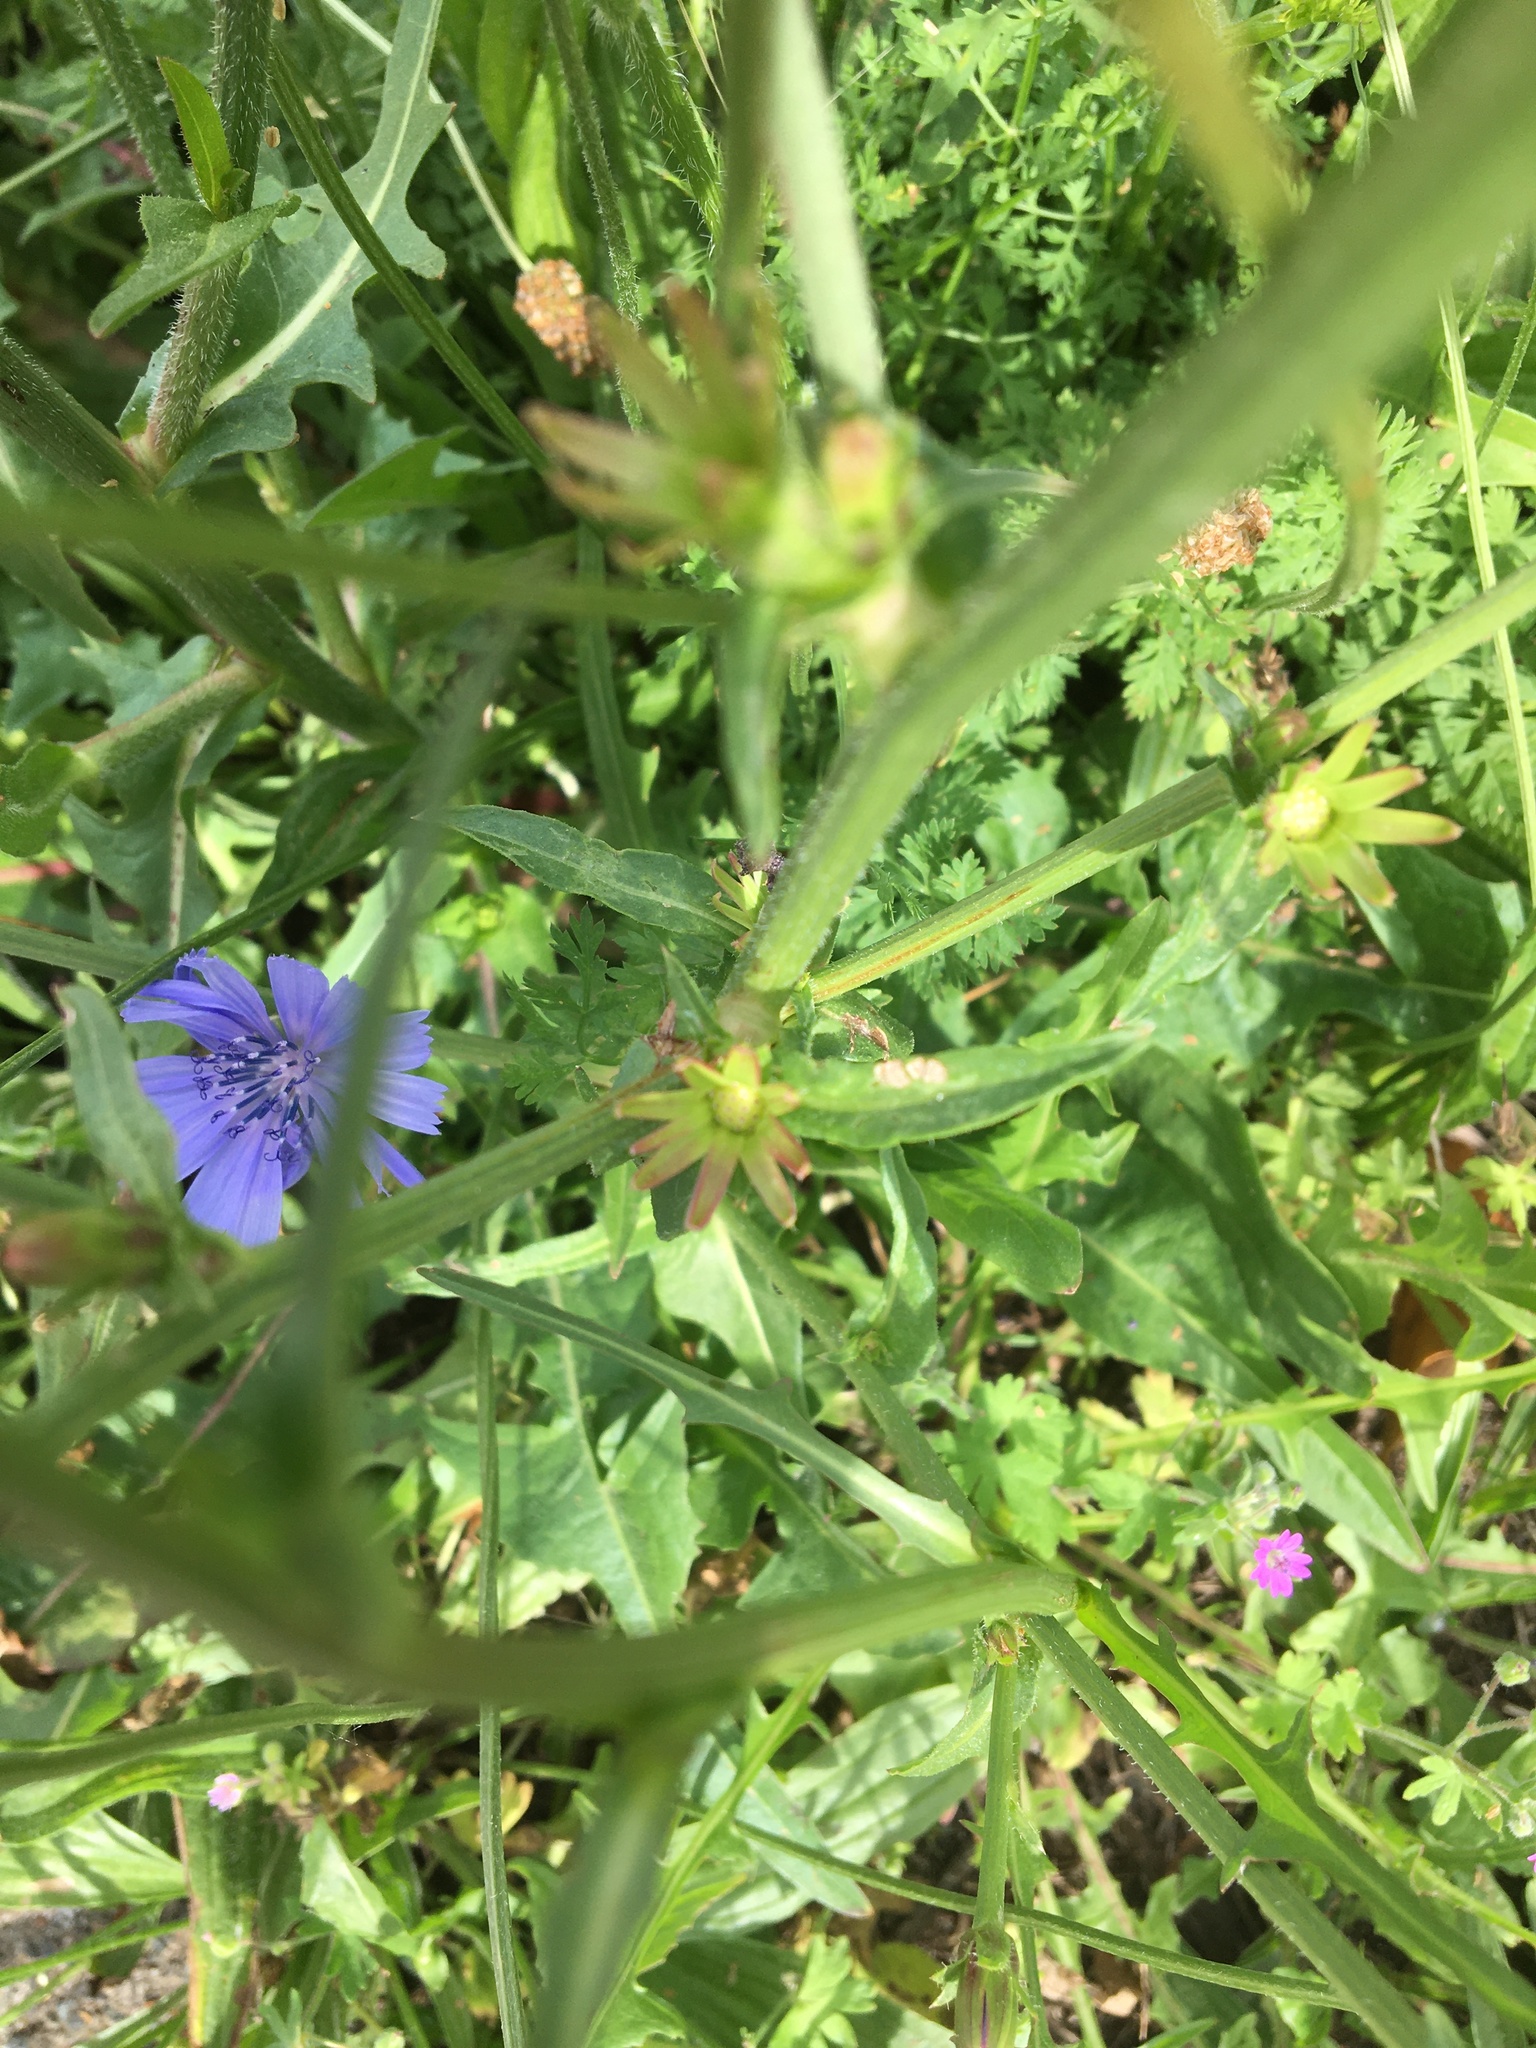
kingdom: Plantae
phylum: Tracheophyta
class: Magnoliopsida
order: Asterales
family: Asteraceae
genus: Cichorium
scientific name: Cichorium intybus
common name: Chicory
